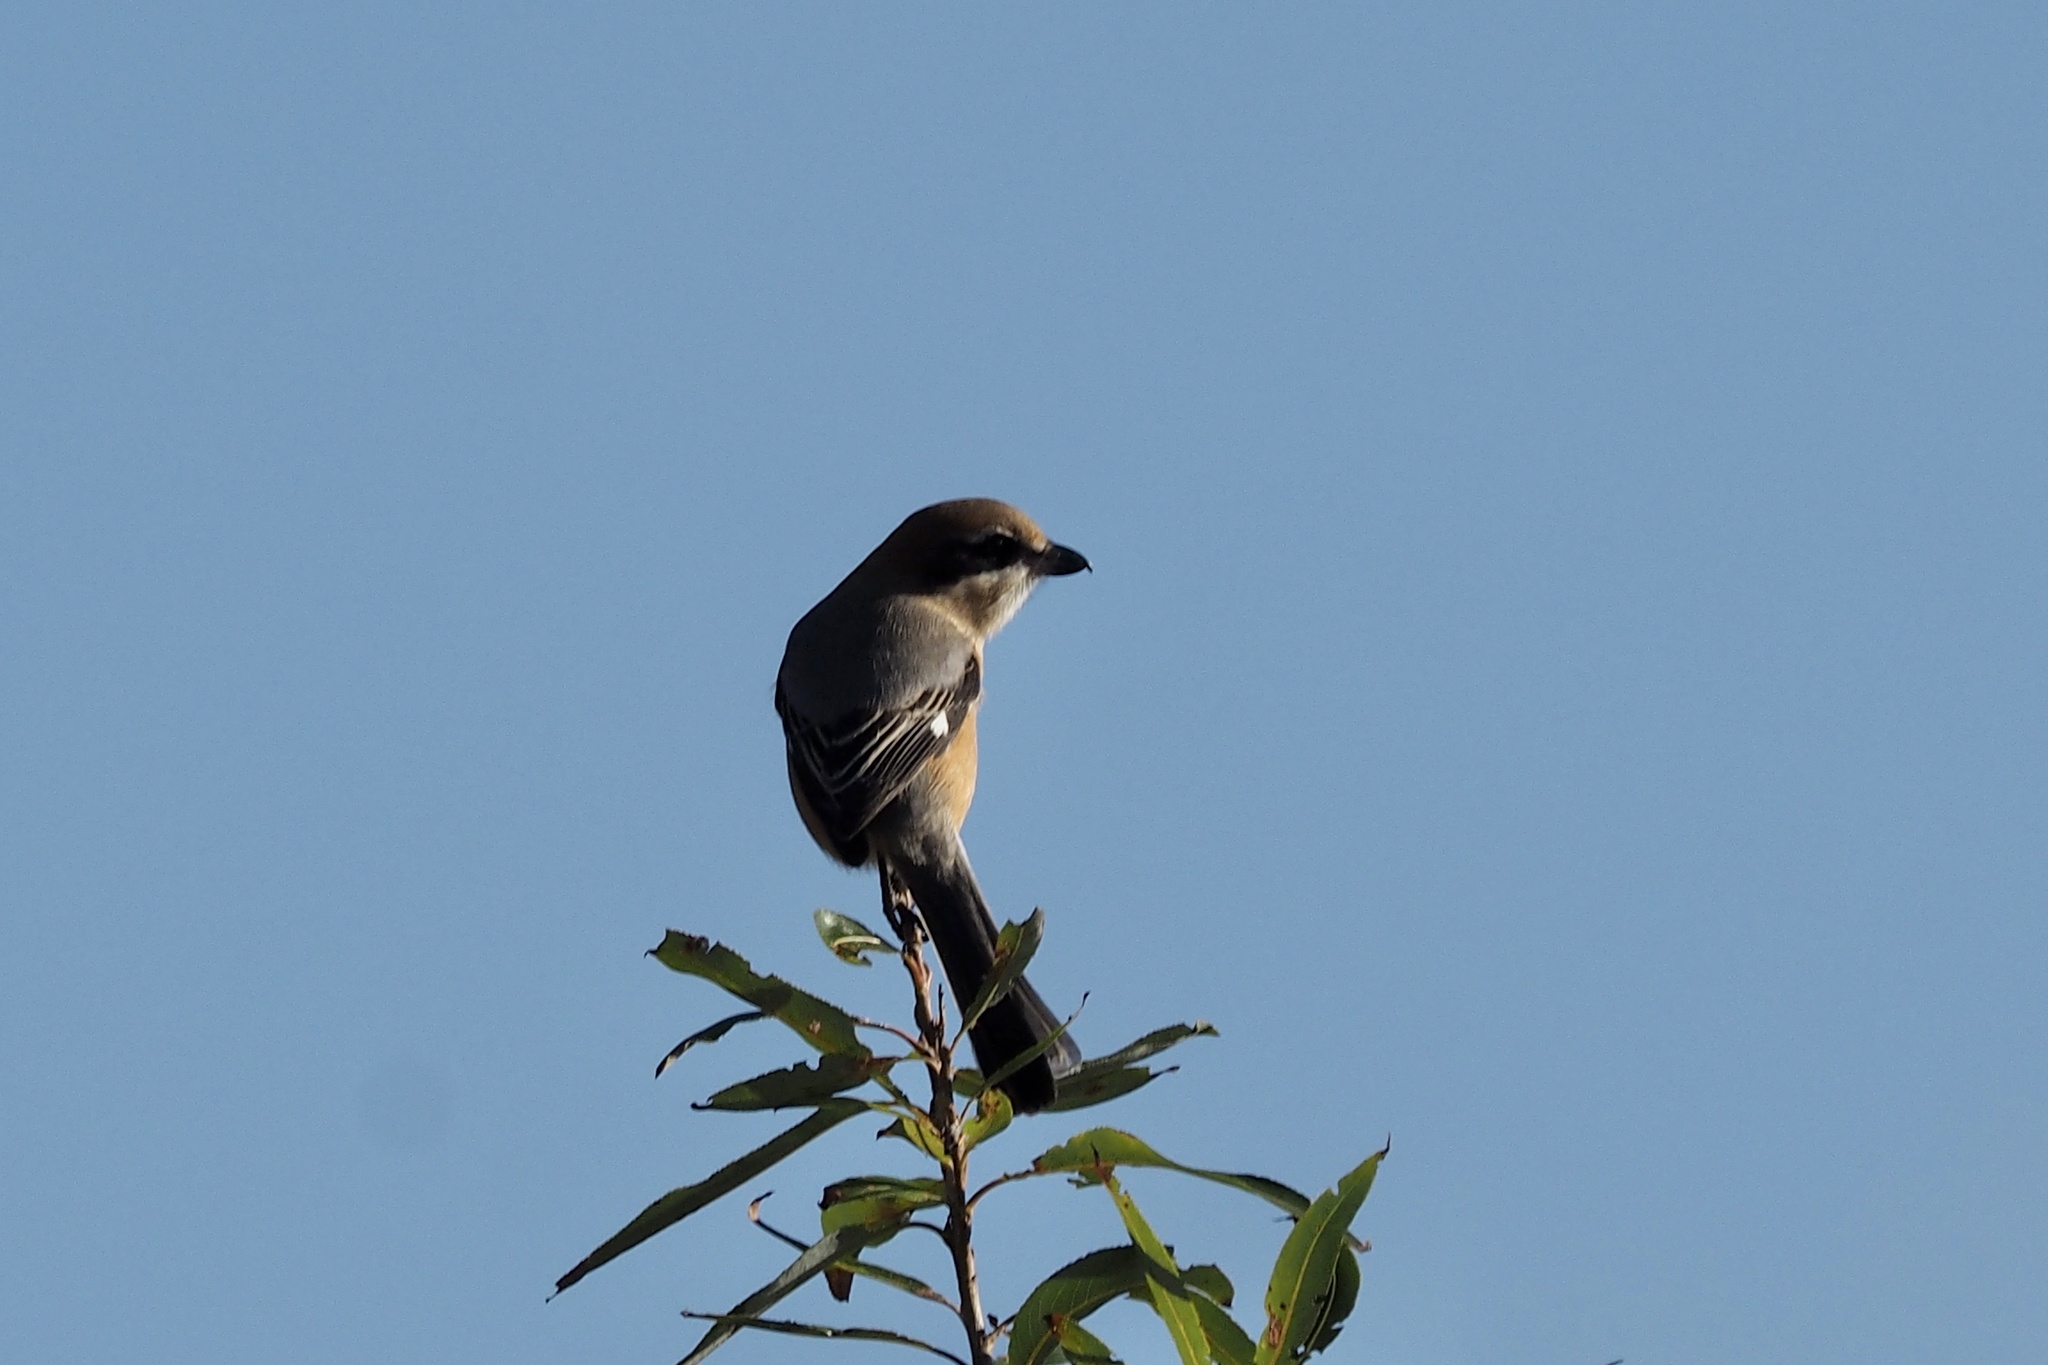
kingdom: Animalia
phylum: Chordata
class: Aves
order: Passeriformes
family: Laniidae
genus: Lanius
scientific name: Lanius bucephalus
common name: Bull-headed shrike
